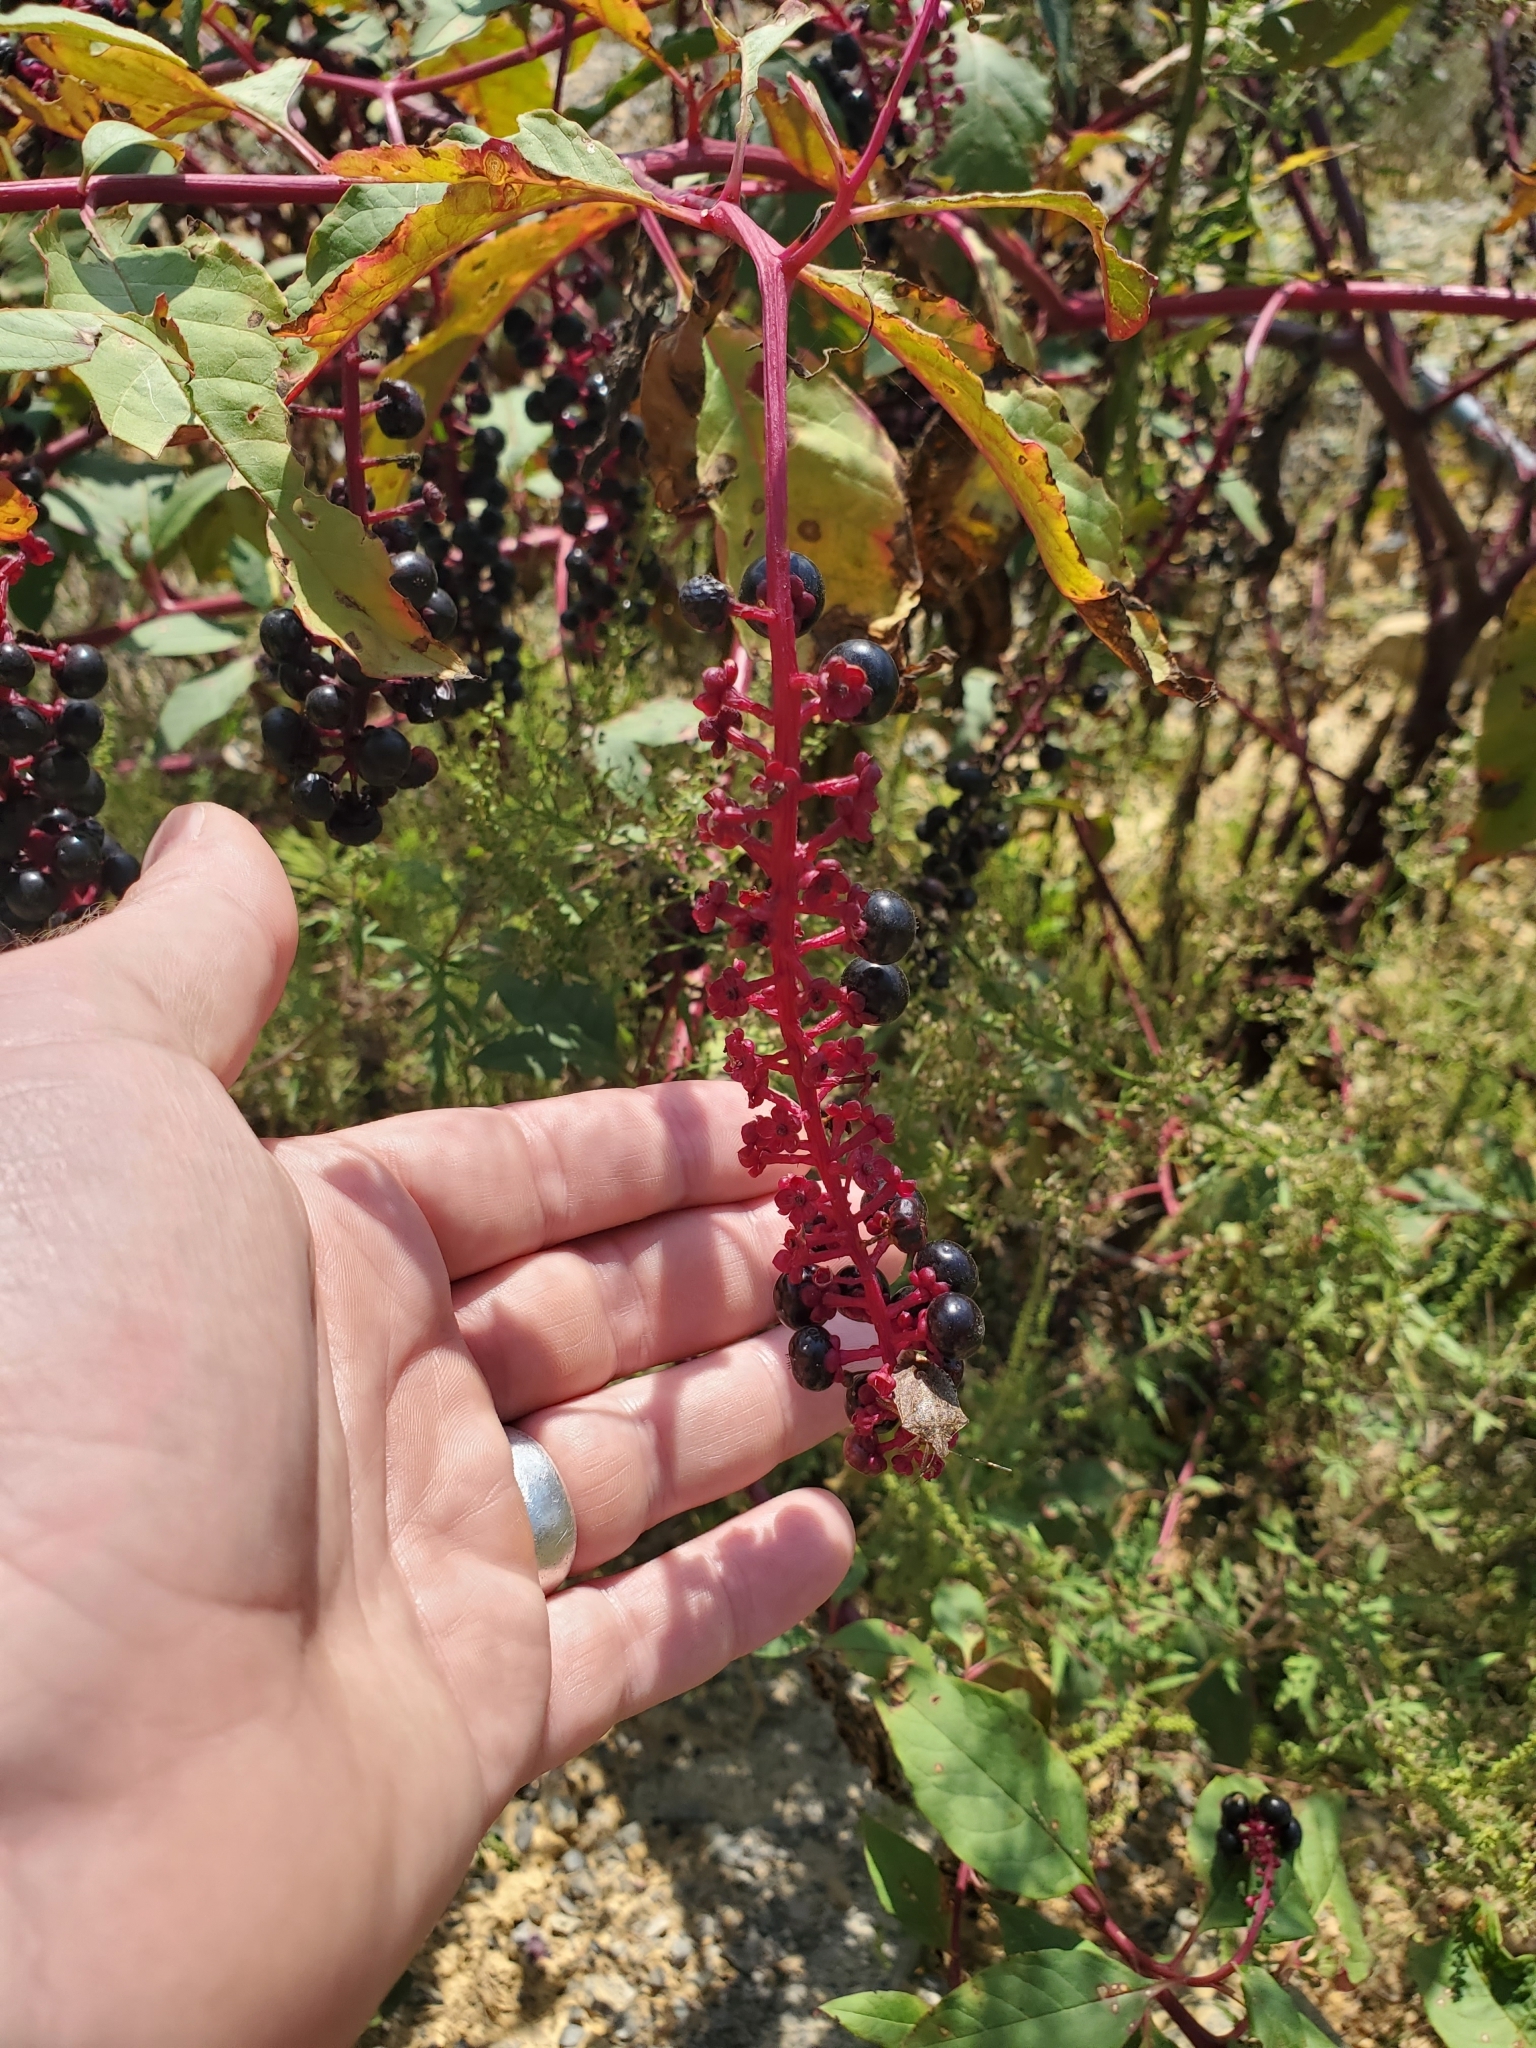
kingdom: Plantae
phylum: Tracheophyta
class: Magnoliopsida
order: Caryophyllales
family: Phytolaccaceae
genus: Phytolacca
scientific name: Phytolacca americana
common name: American pokeweed
